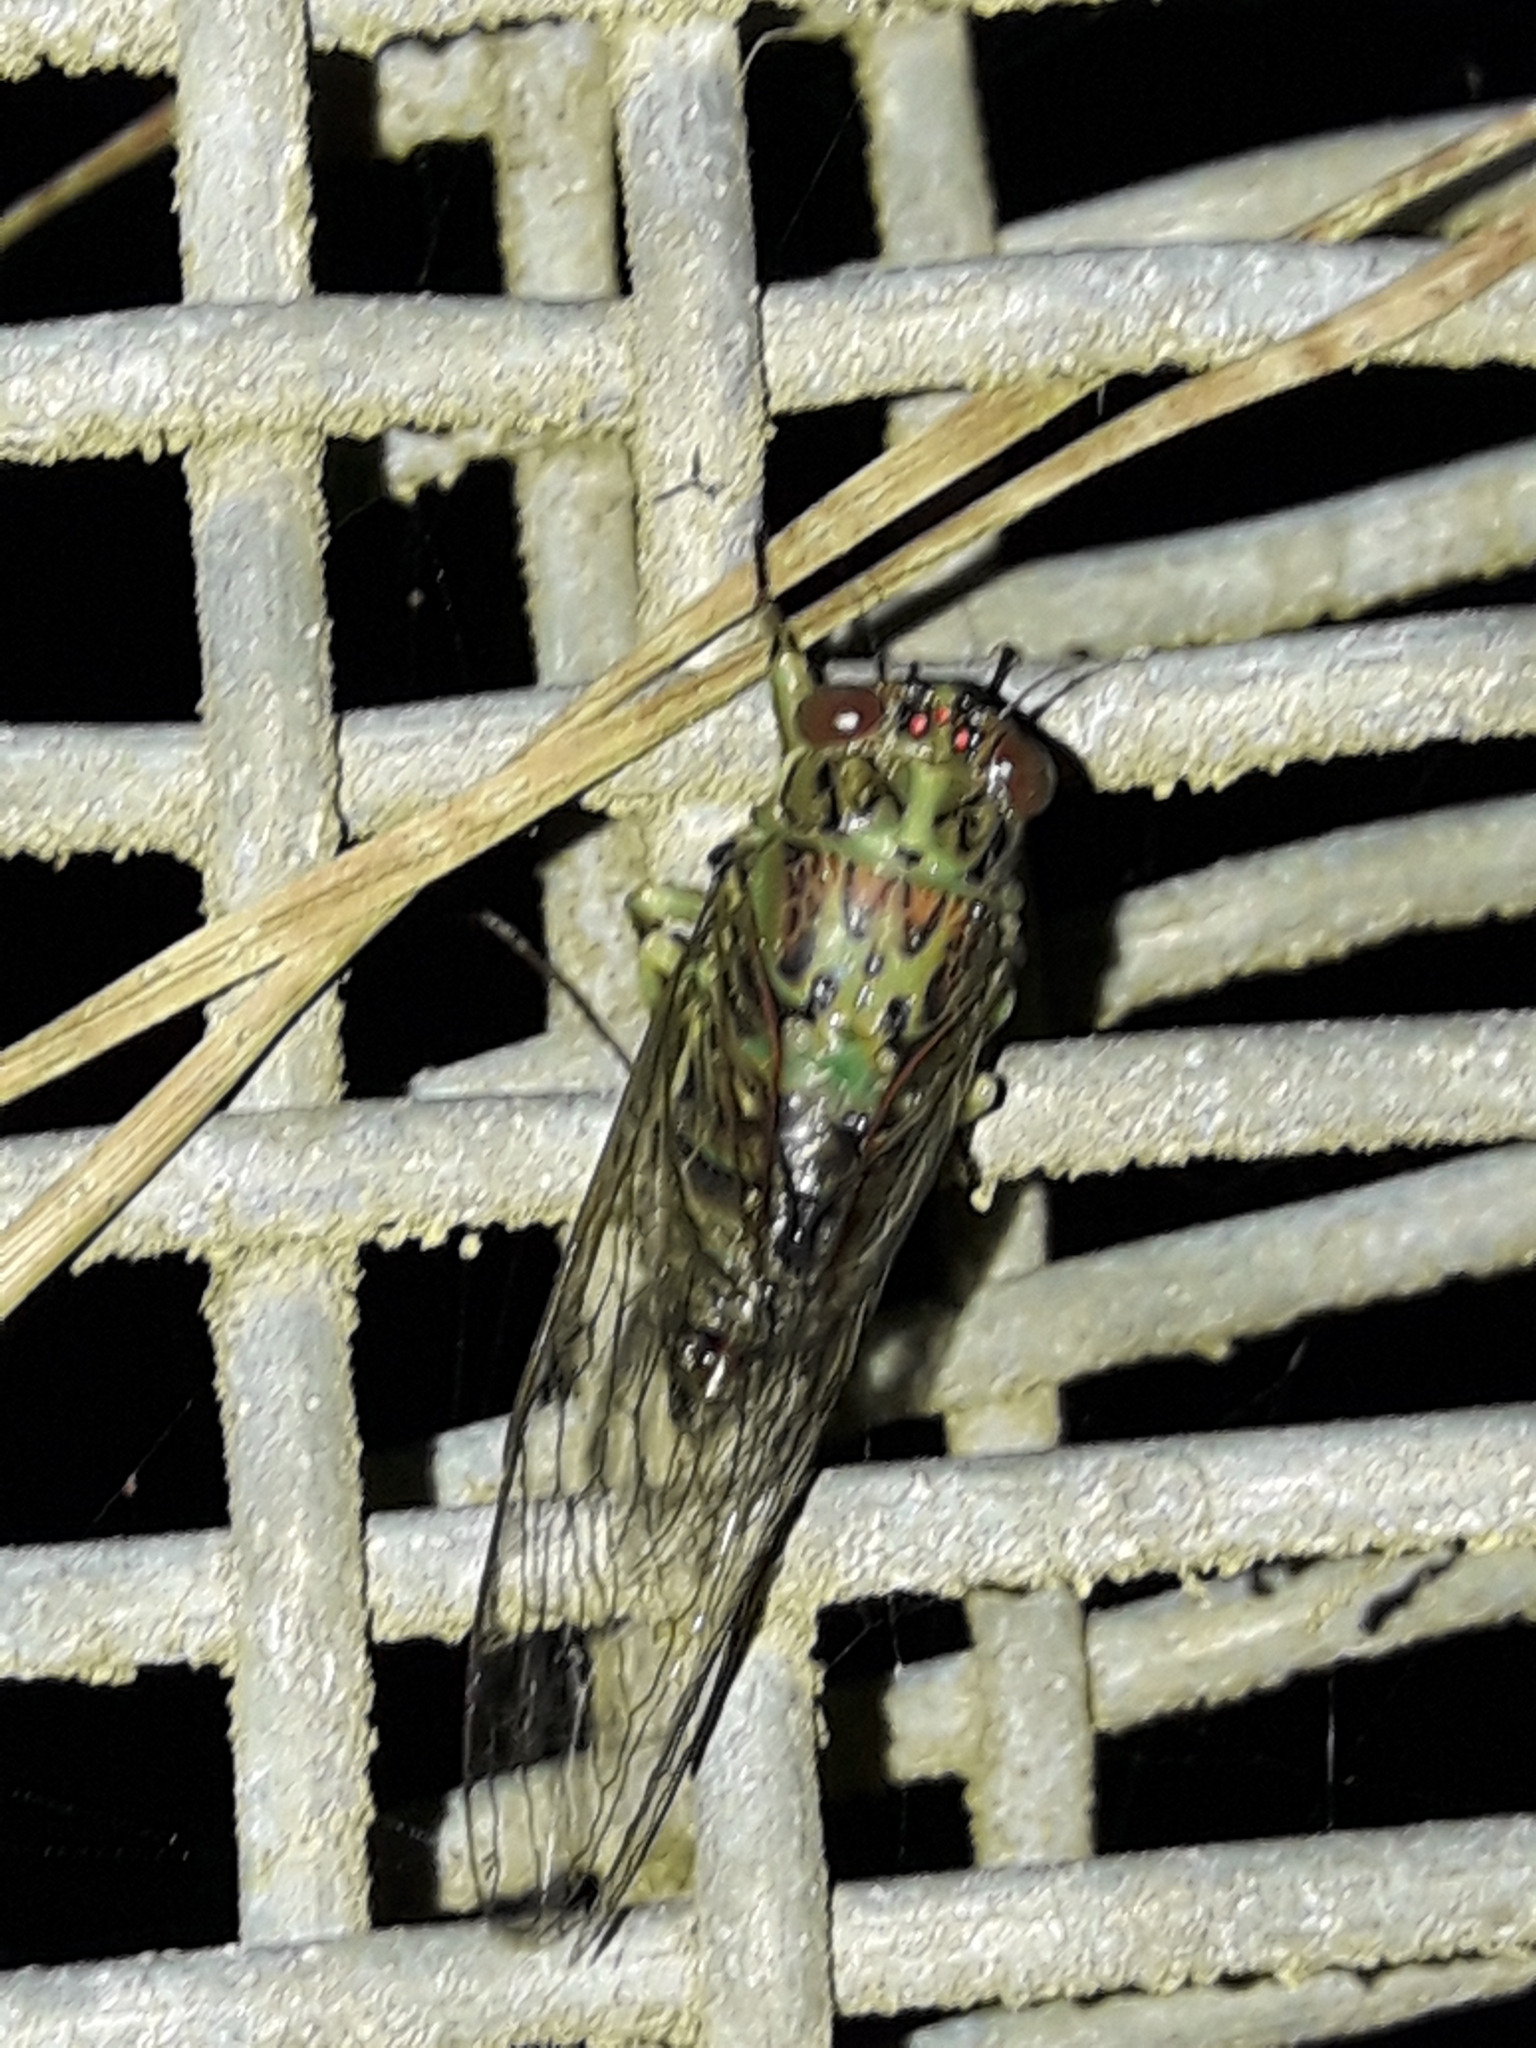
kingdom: Animalia
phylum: Arthropoda
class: Insecta
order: Hemiptera
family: Cicadidae
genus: Kikihia
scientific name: Kikihia scutellaris
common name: Lesser bronze cicada
